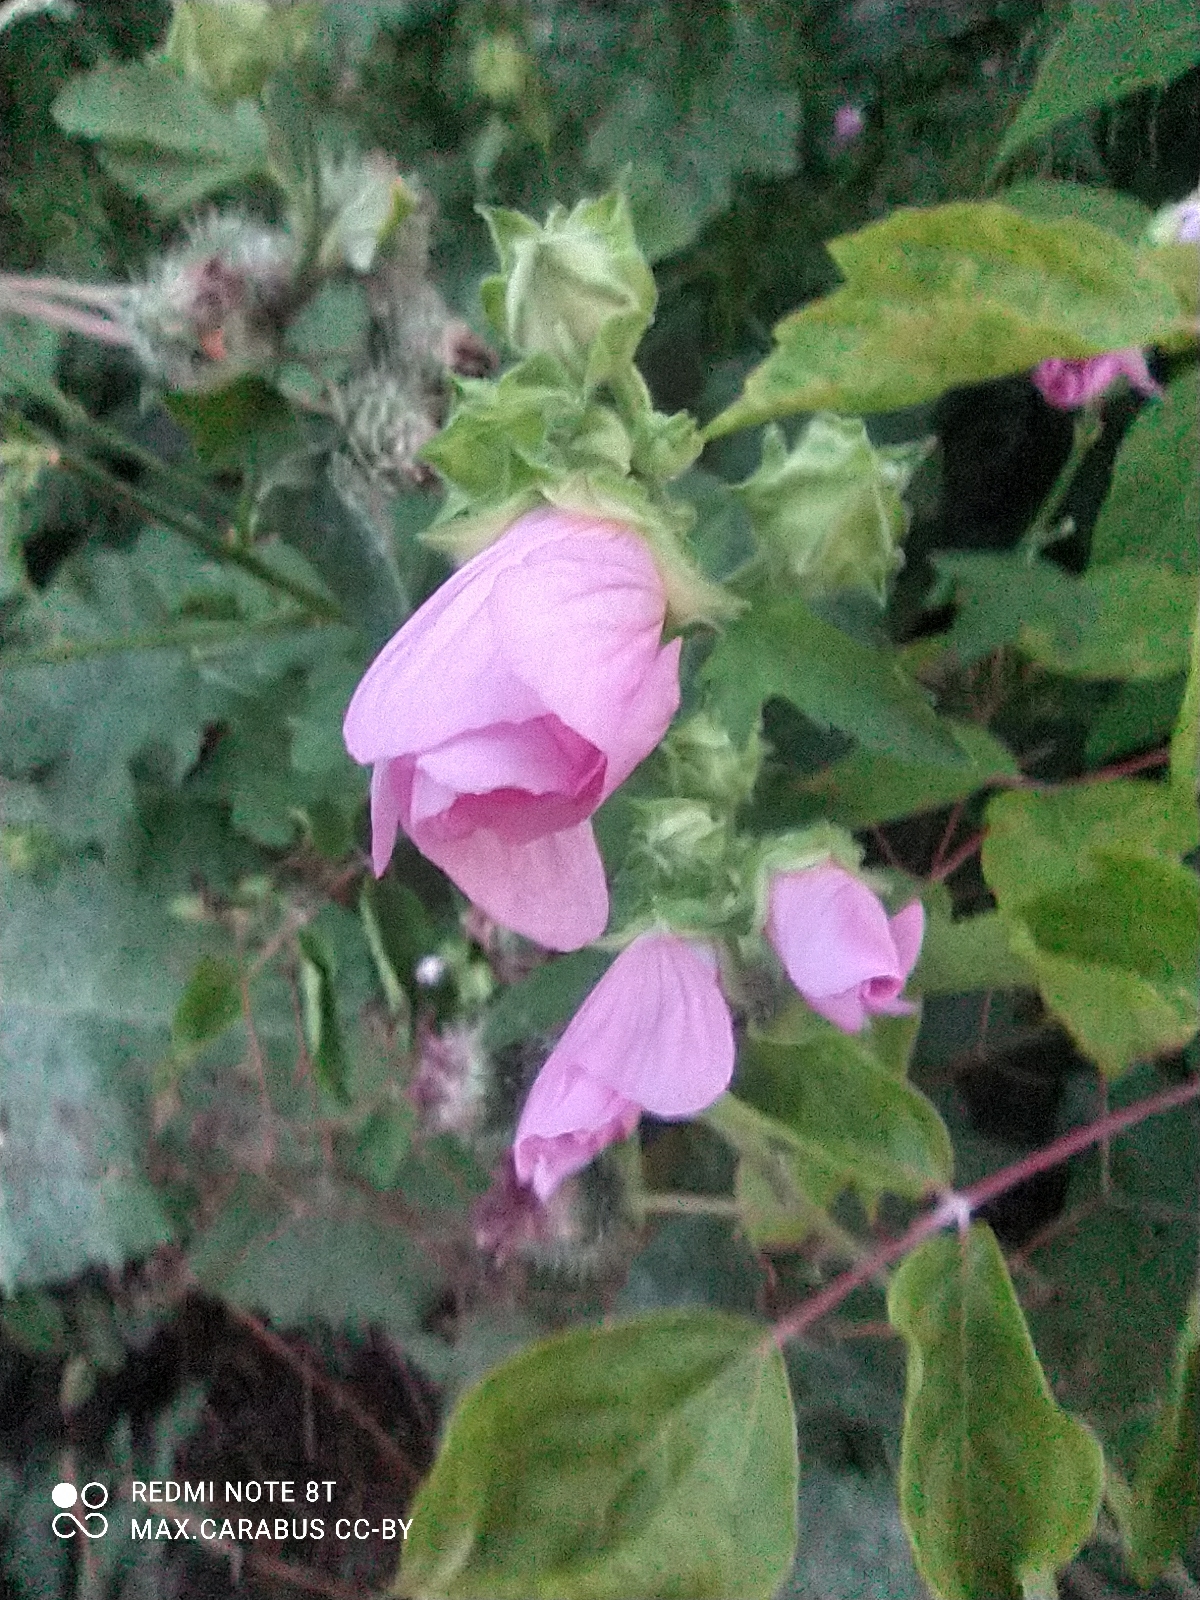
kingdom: Plantae
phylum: Tracheophyta
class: Magnoliopsida
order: Malvales
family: Malvaceae
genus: Malva
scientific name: Malva thuringiaca
